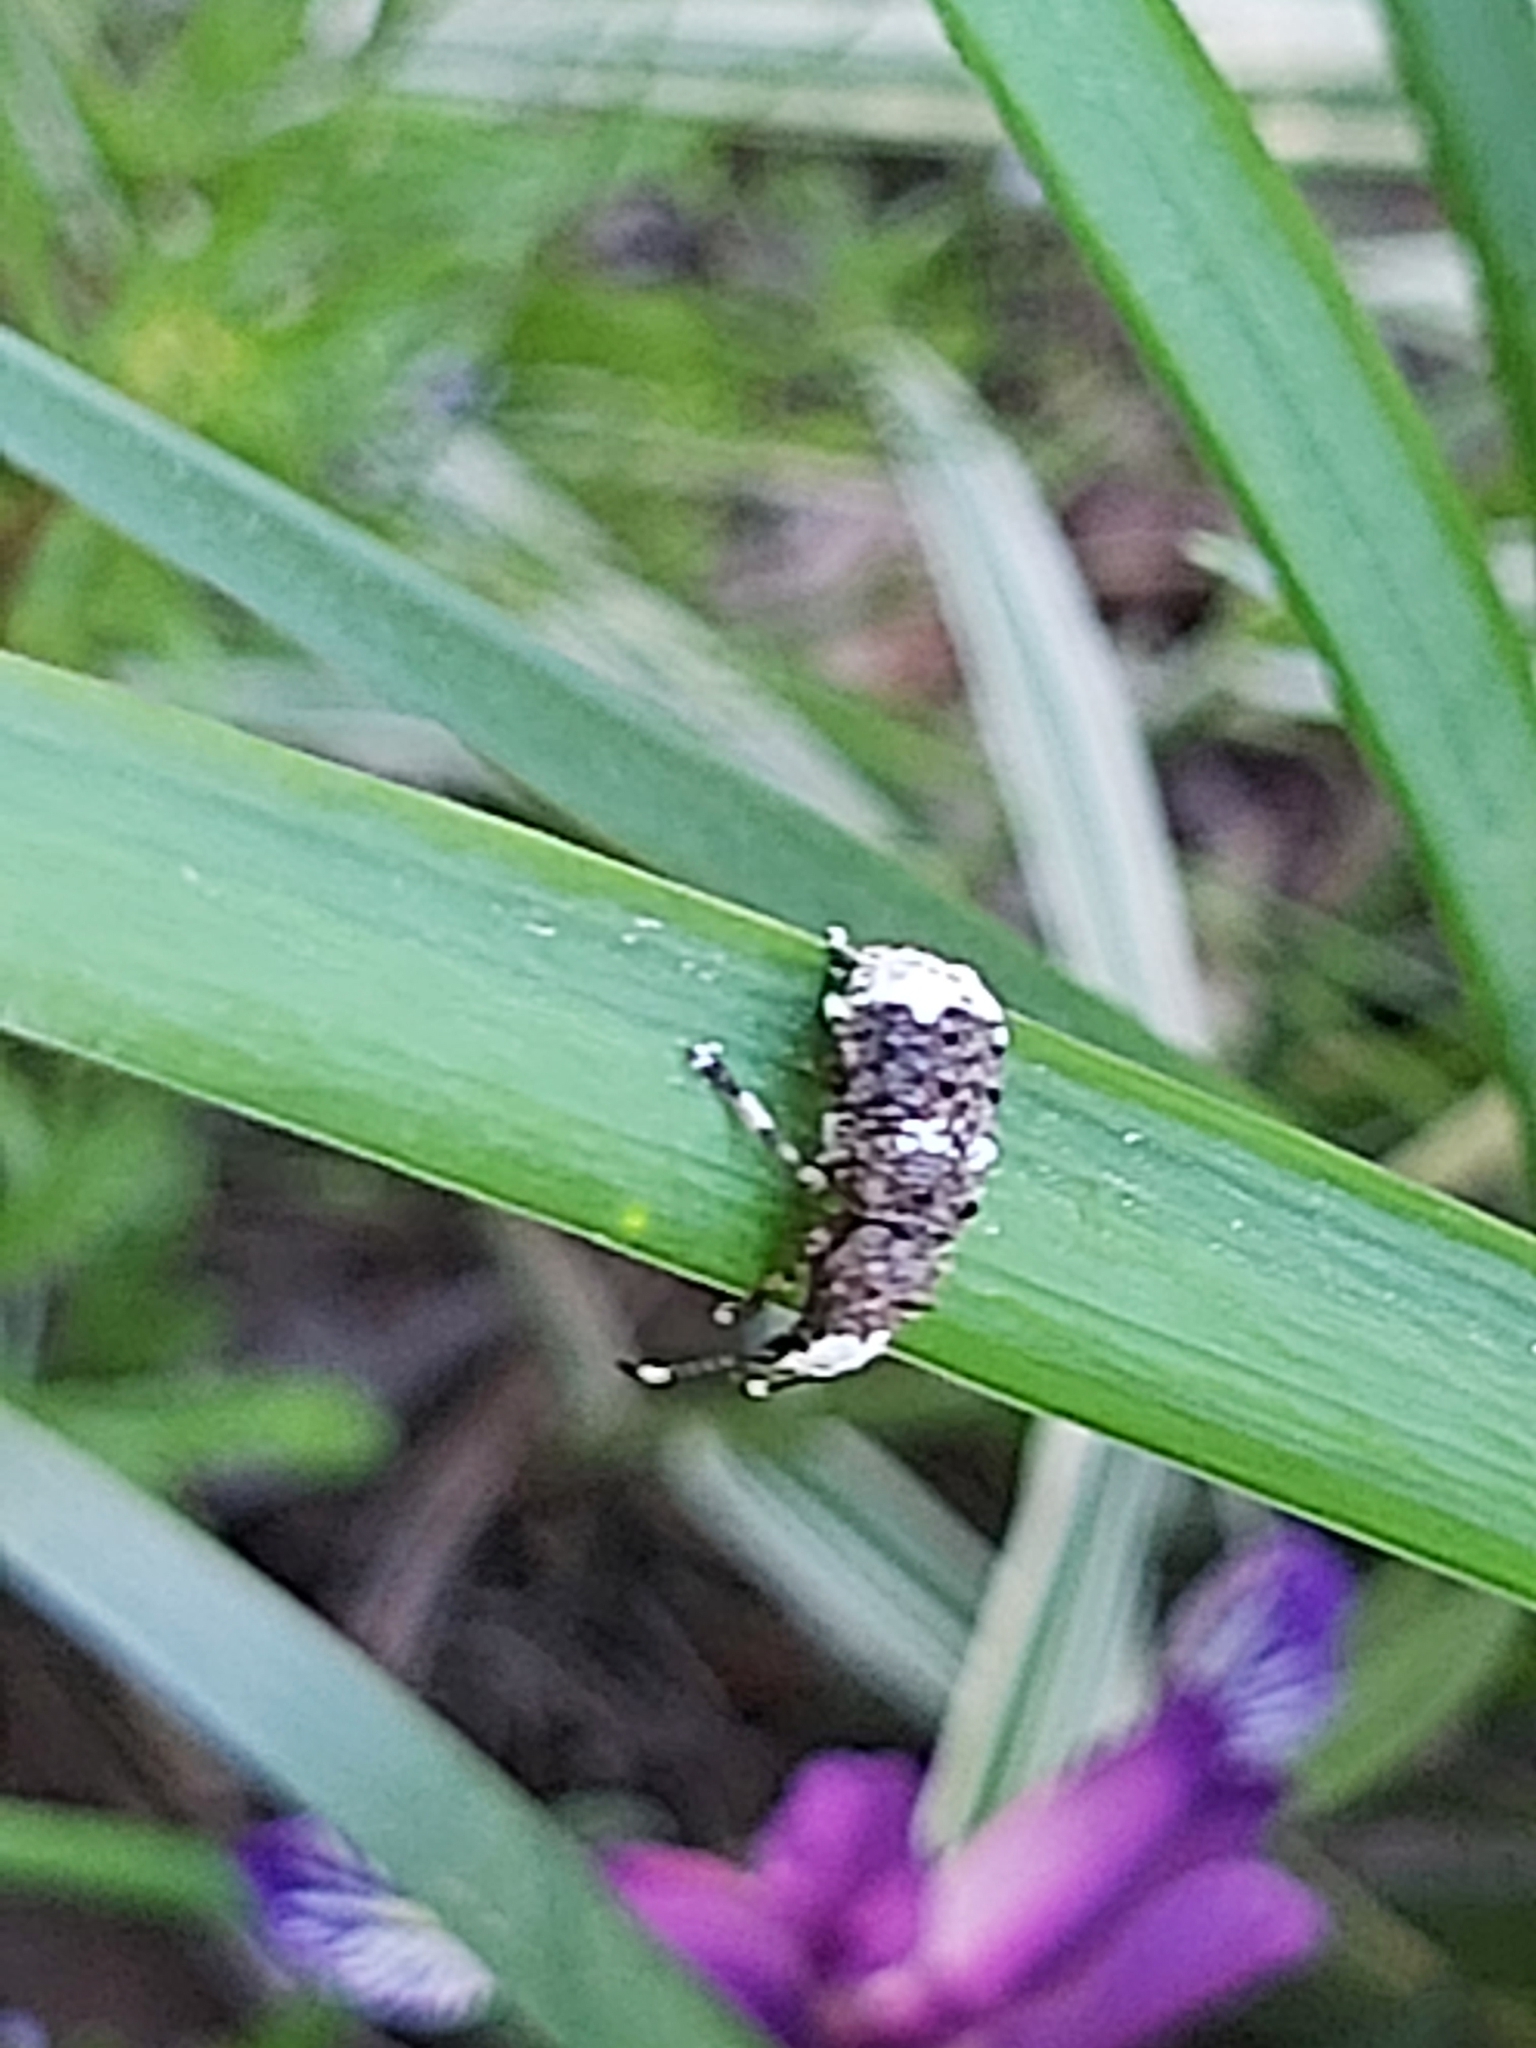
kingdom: Animalia
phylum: Arthropoda
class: Insecta
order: Coleoptera
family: Anthribidae
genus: Platystomos
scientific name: Platystomos albinus
